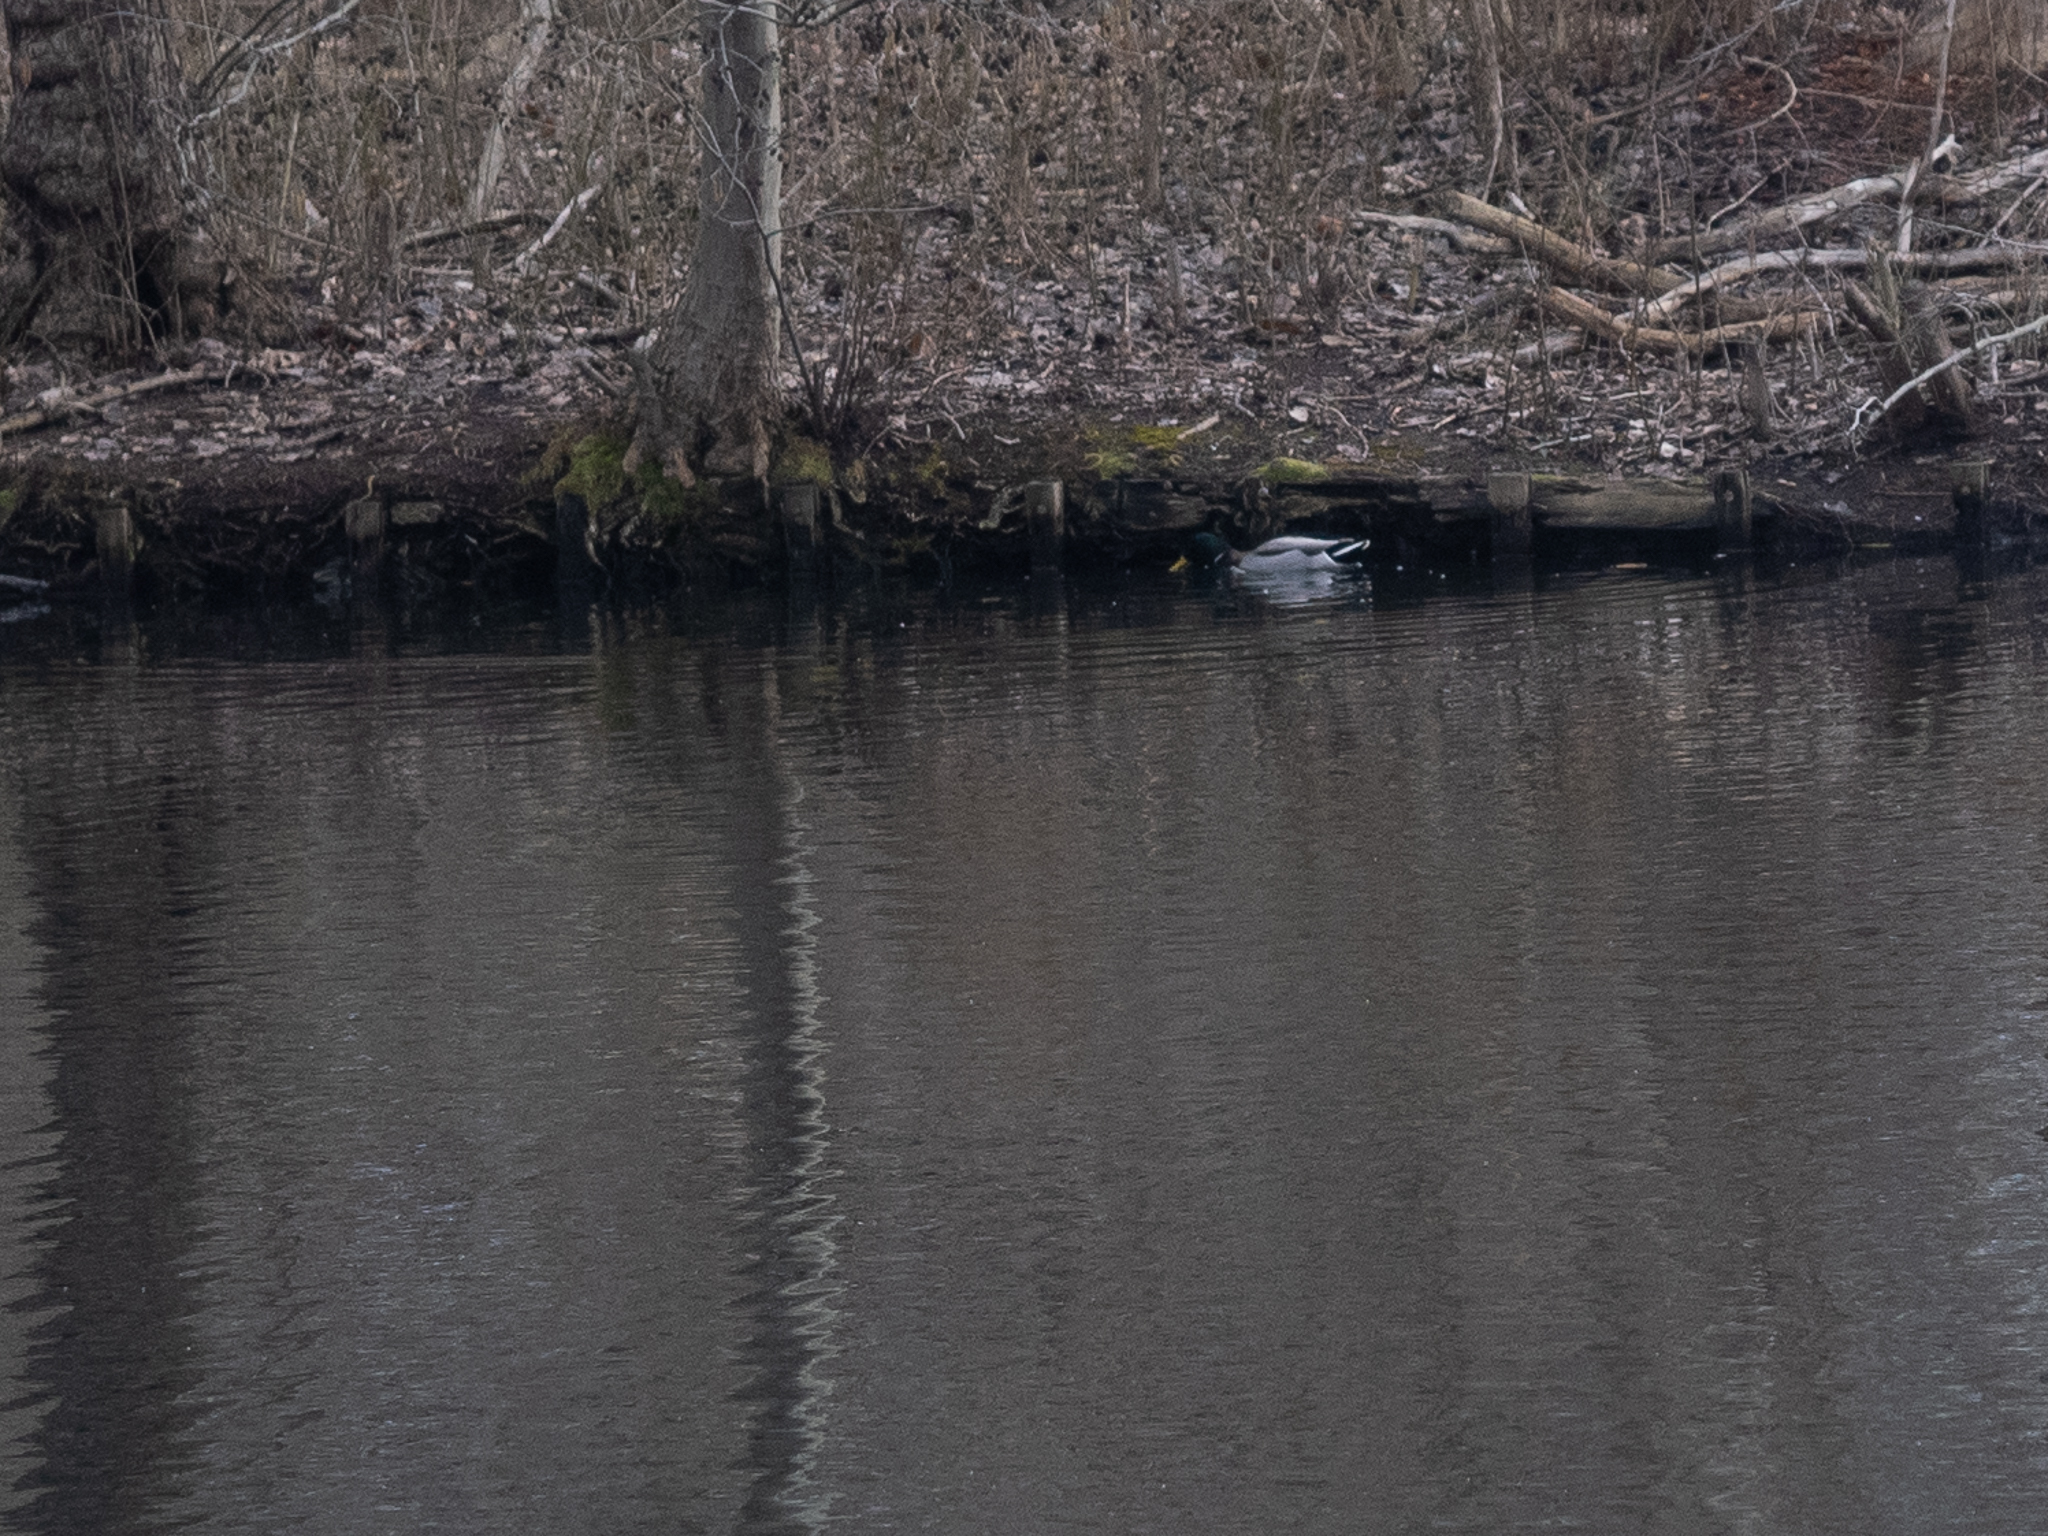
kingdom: Animalia
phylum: Chordata
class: Aves
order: Anseriformes
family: Anatidae
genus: Anas
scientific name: Anas platyrhynchos
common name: Mallard
